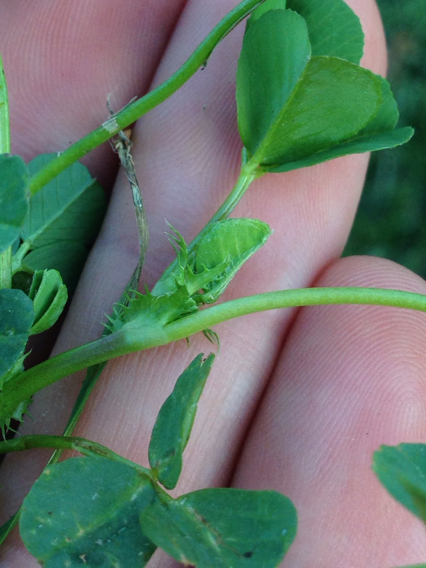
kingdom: Plantae
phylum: Tracheophyta
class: Magnoliopsida
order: Fabales
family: Fabaceae
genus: Medicago
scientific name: Medicago polymorpha
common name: Burclover
